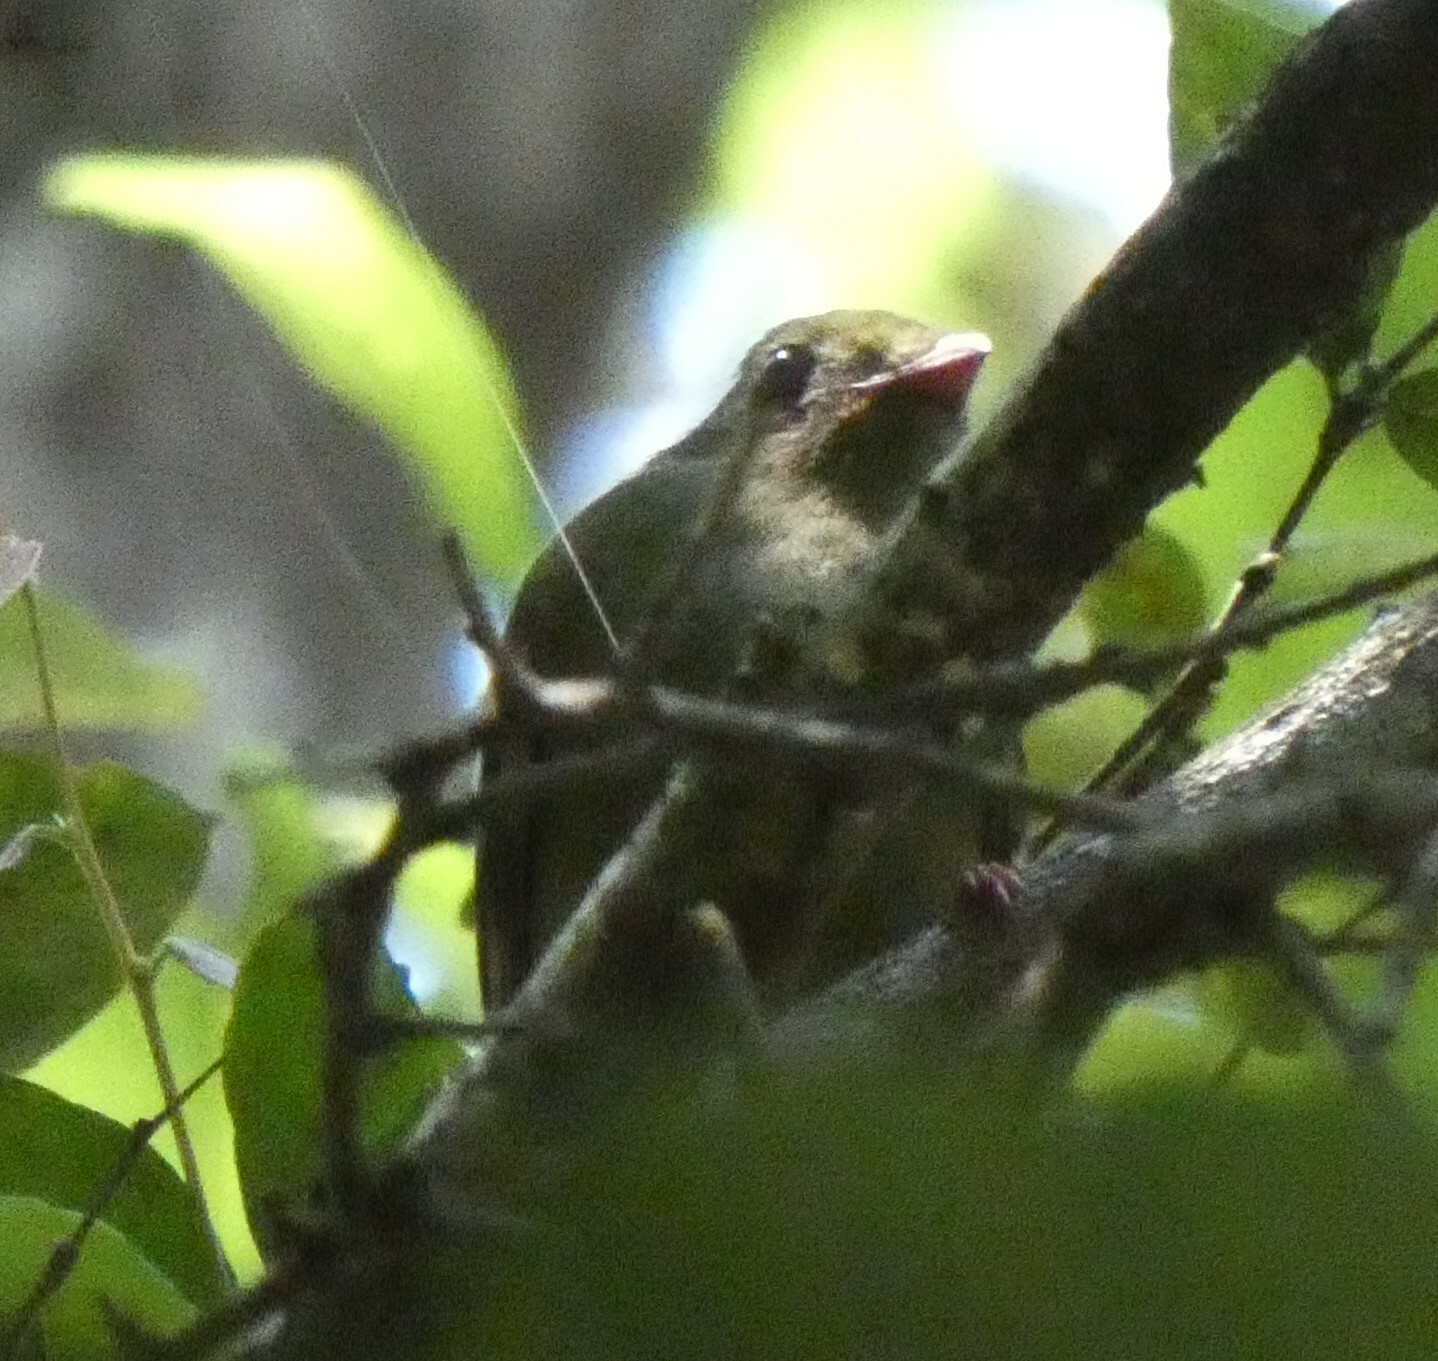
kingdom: Animalia
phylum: Chordata
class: Aves
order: Passeriformes
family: Pipridae
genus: Chiroxiphia
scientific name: Chiroxiphia caudata
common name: Blue manakin
